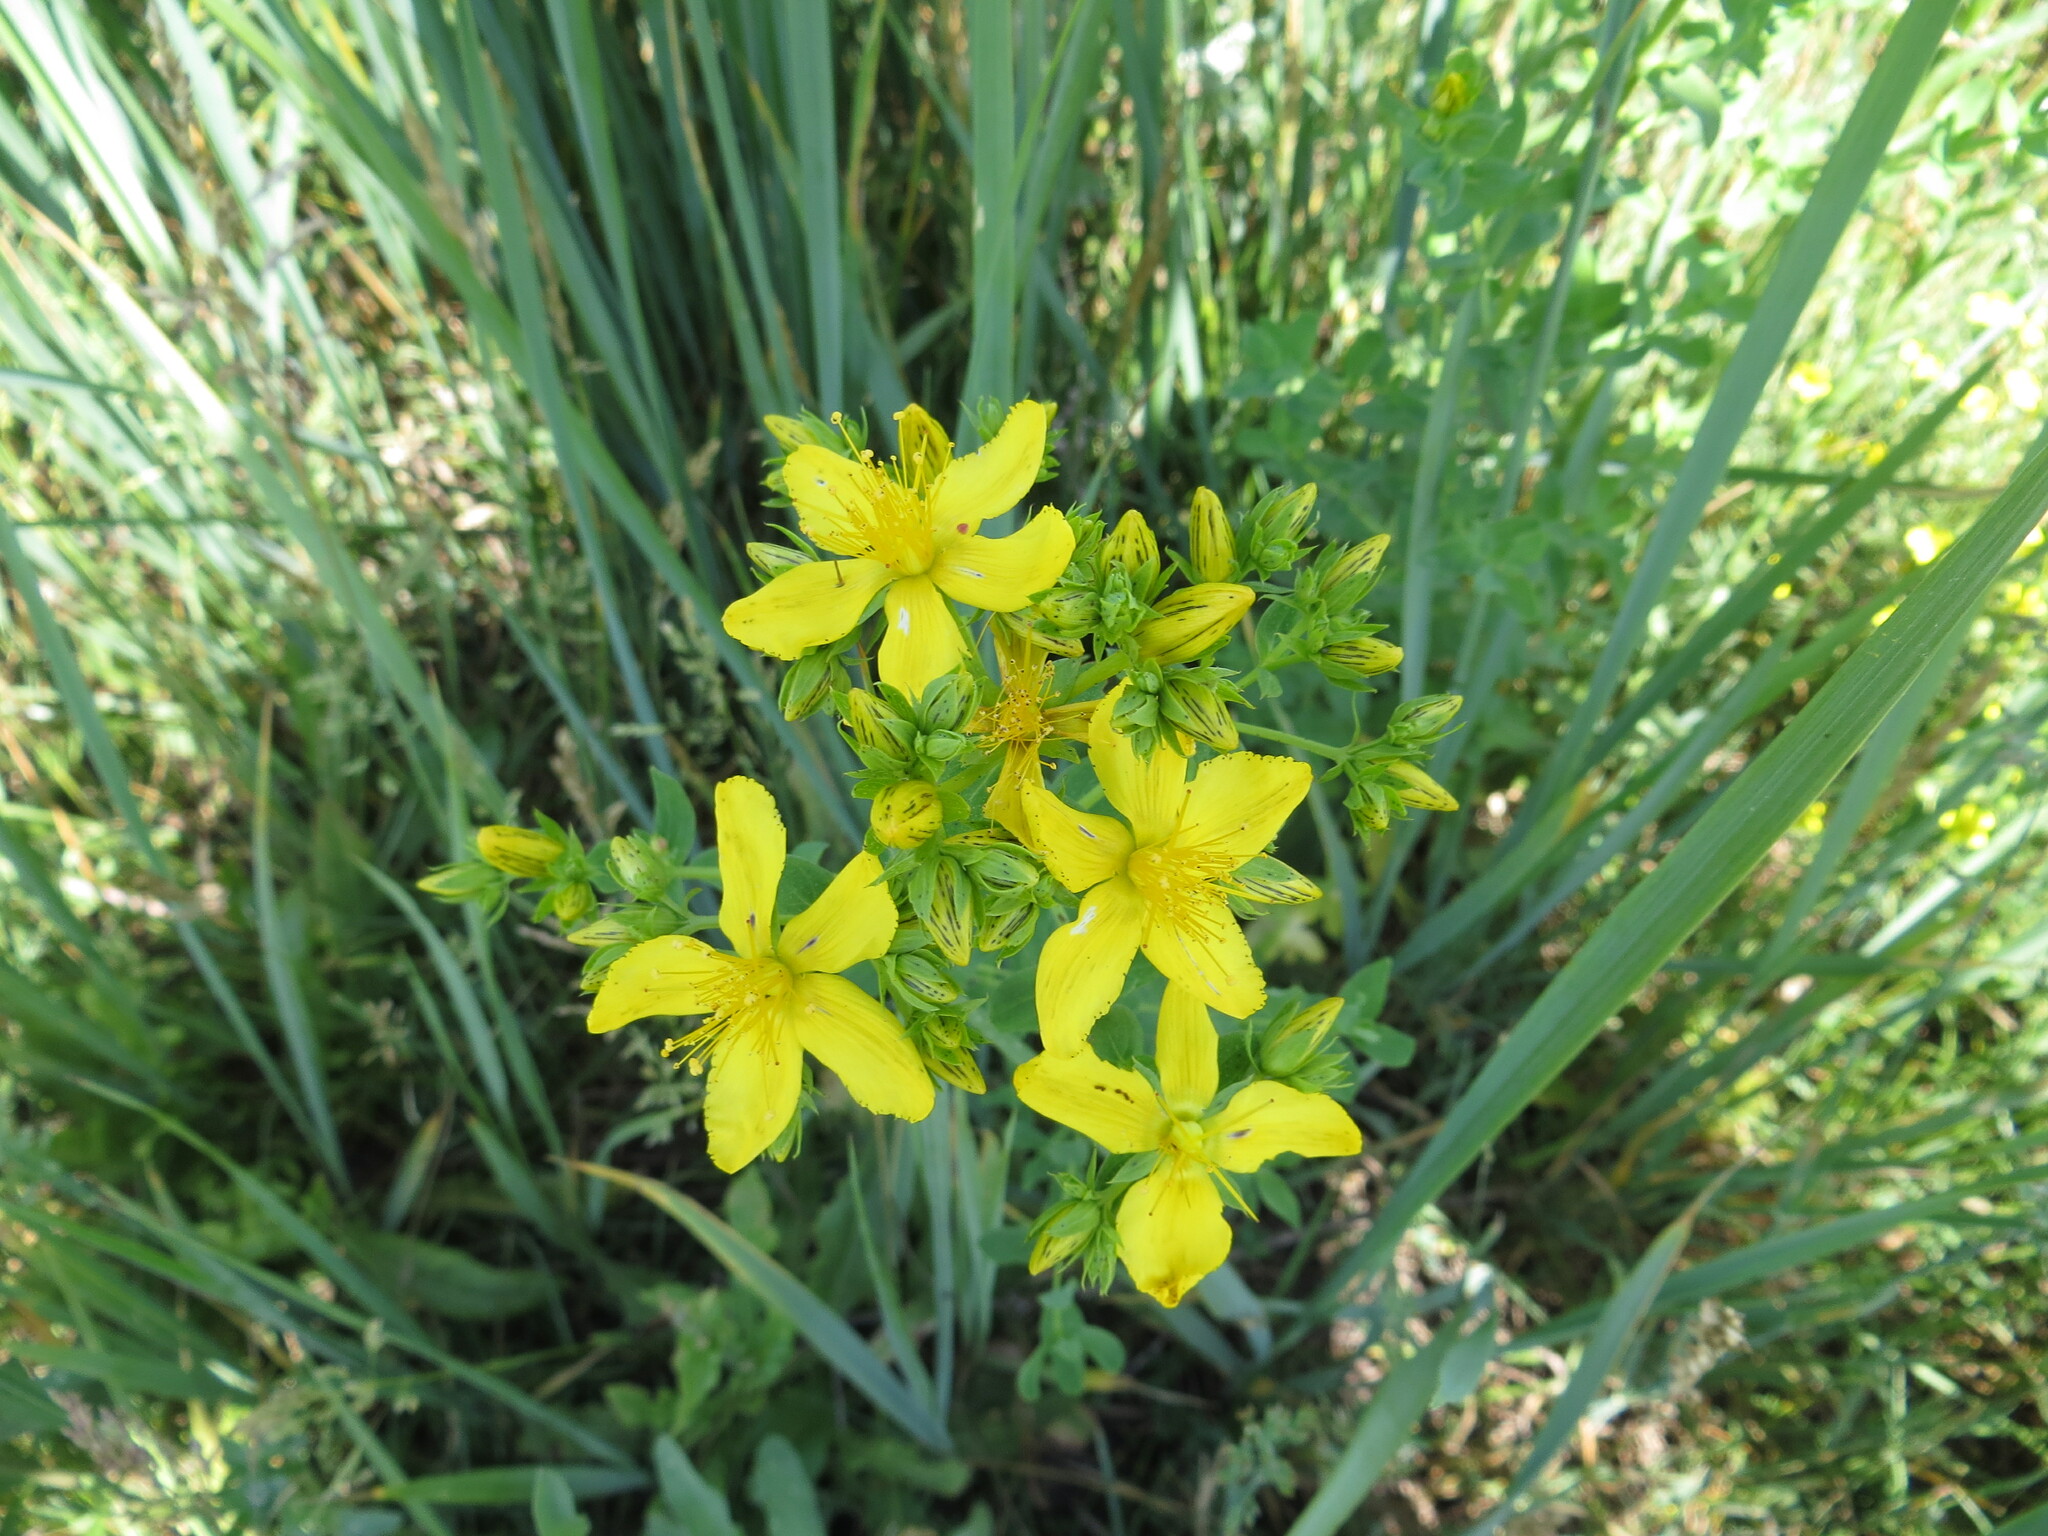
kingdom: Plantae
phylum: Tracheophyta
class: Magnoliopsida
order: Malpighiales
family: Hypericaceae
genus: Hypericum
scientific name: Hypericum perforatum
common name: Common st. johnswort
